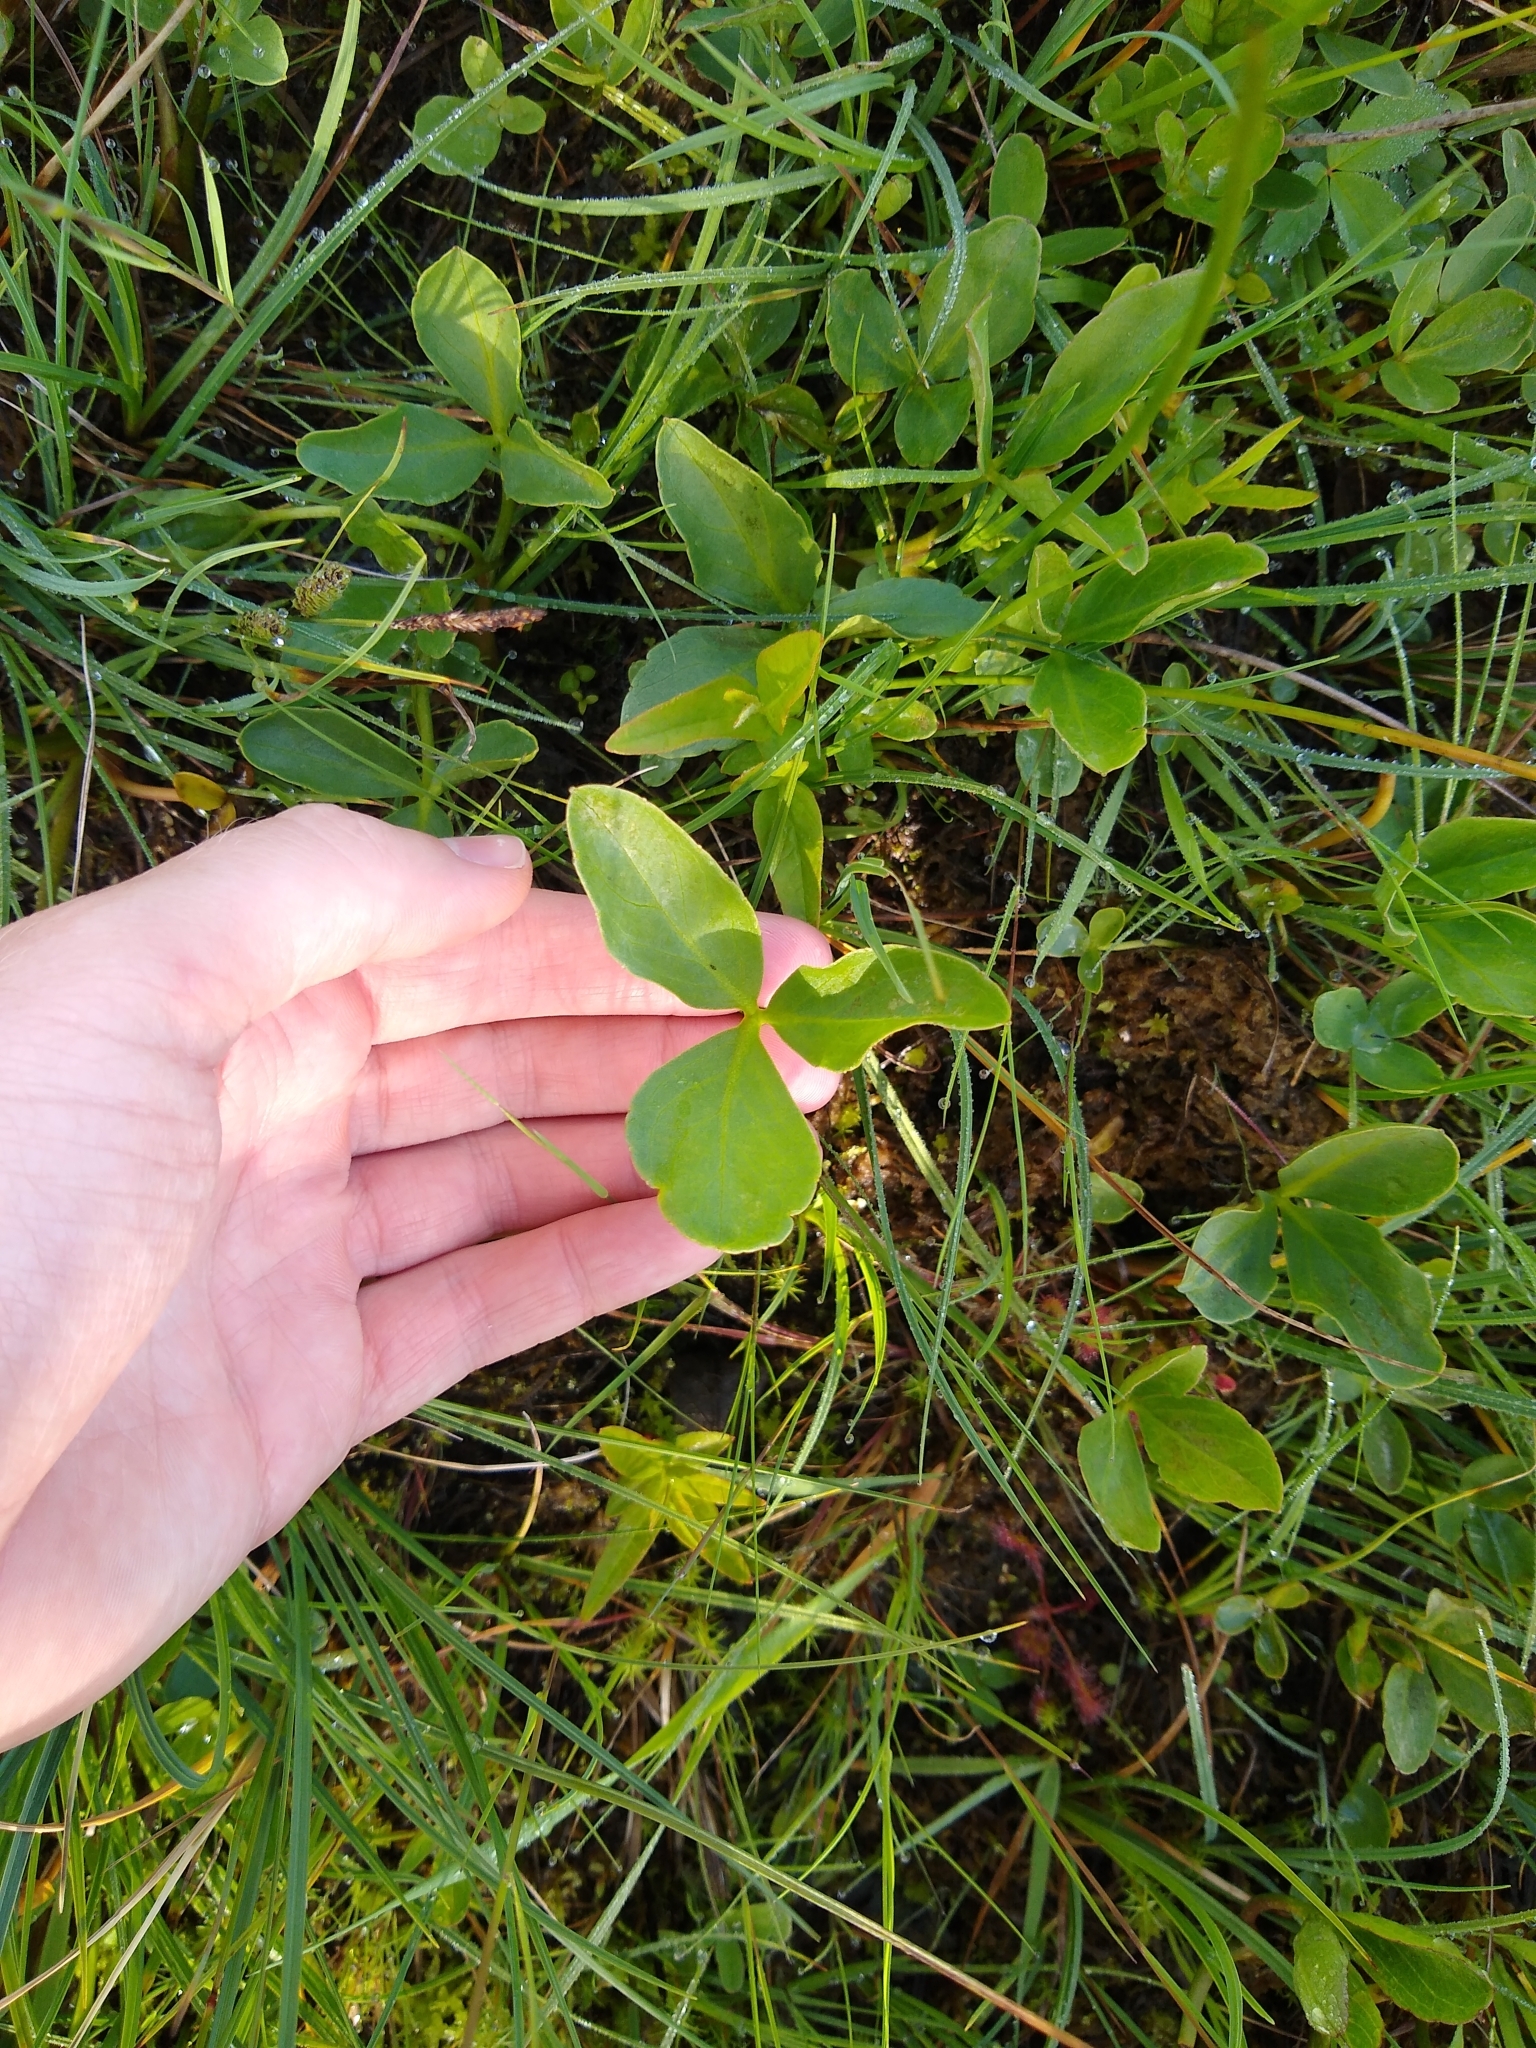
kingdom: Plantae
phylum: Tracheophyta
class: Magnoliopsida
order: Asterales
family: Menyanthaceae
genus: Menyanthes
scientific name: Menyanthes trifoliata
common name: Bogbean
